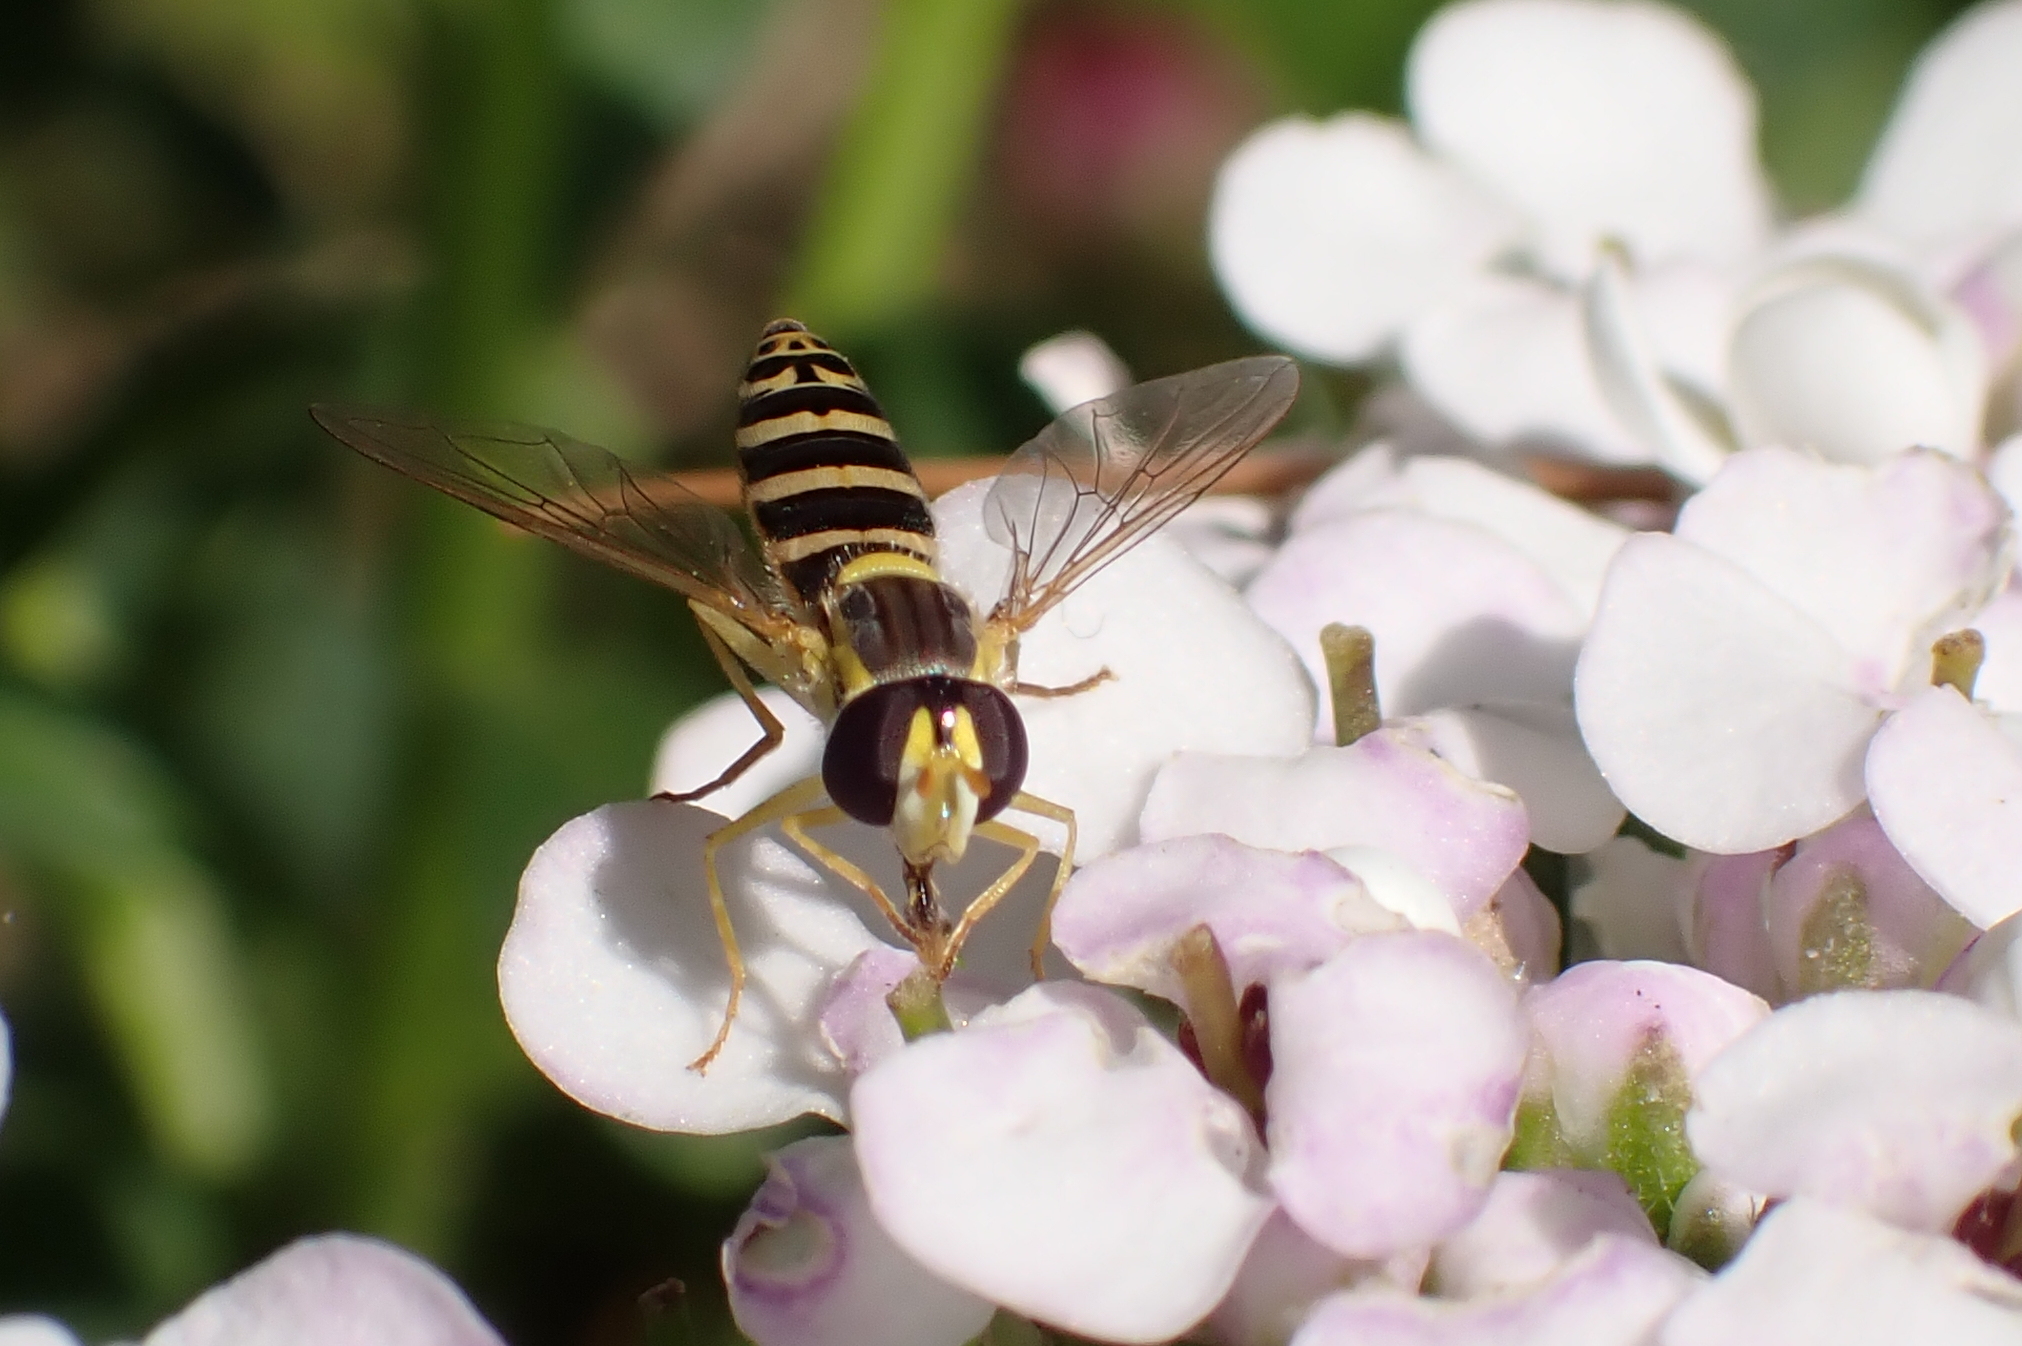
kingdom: Animalia
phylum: Arthropoda
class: Insecta
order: Diptera
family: Syrphidae
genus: Sphaerophoria
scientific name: Sphaerophoria
